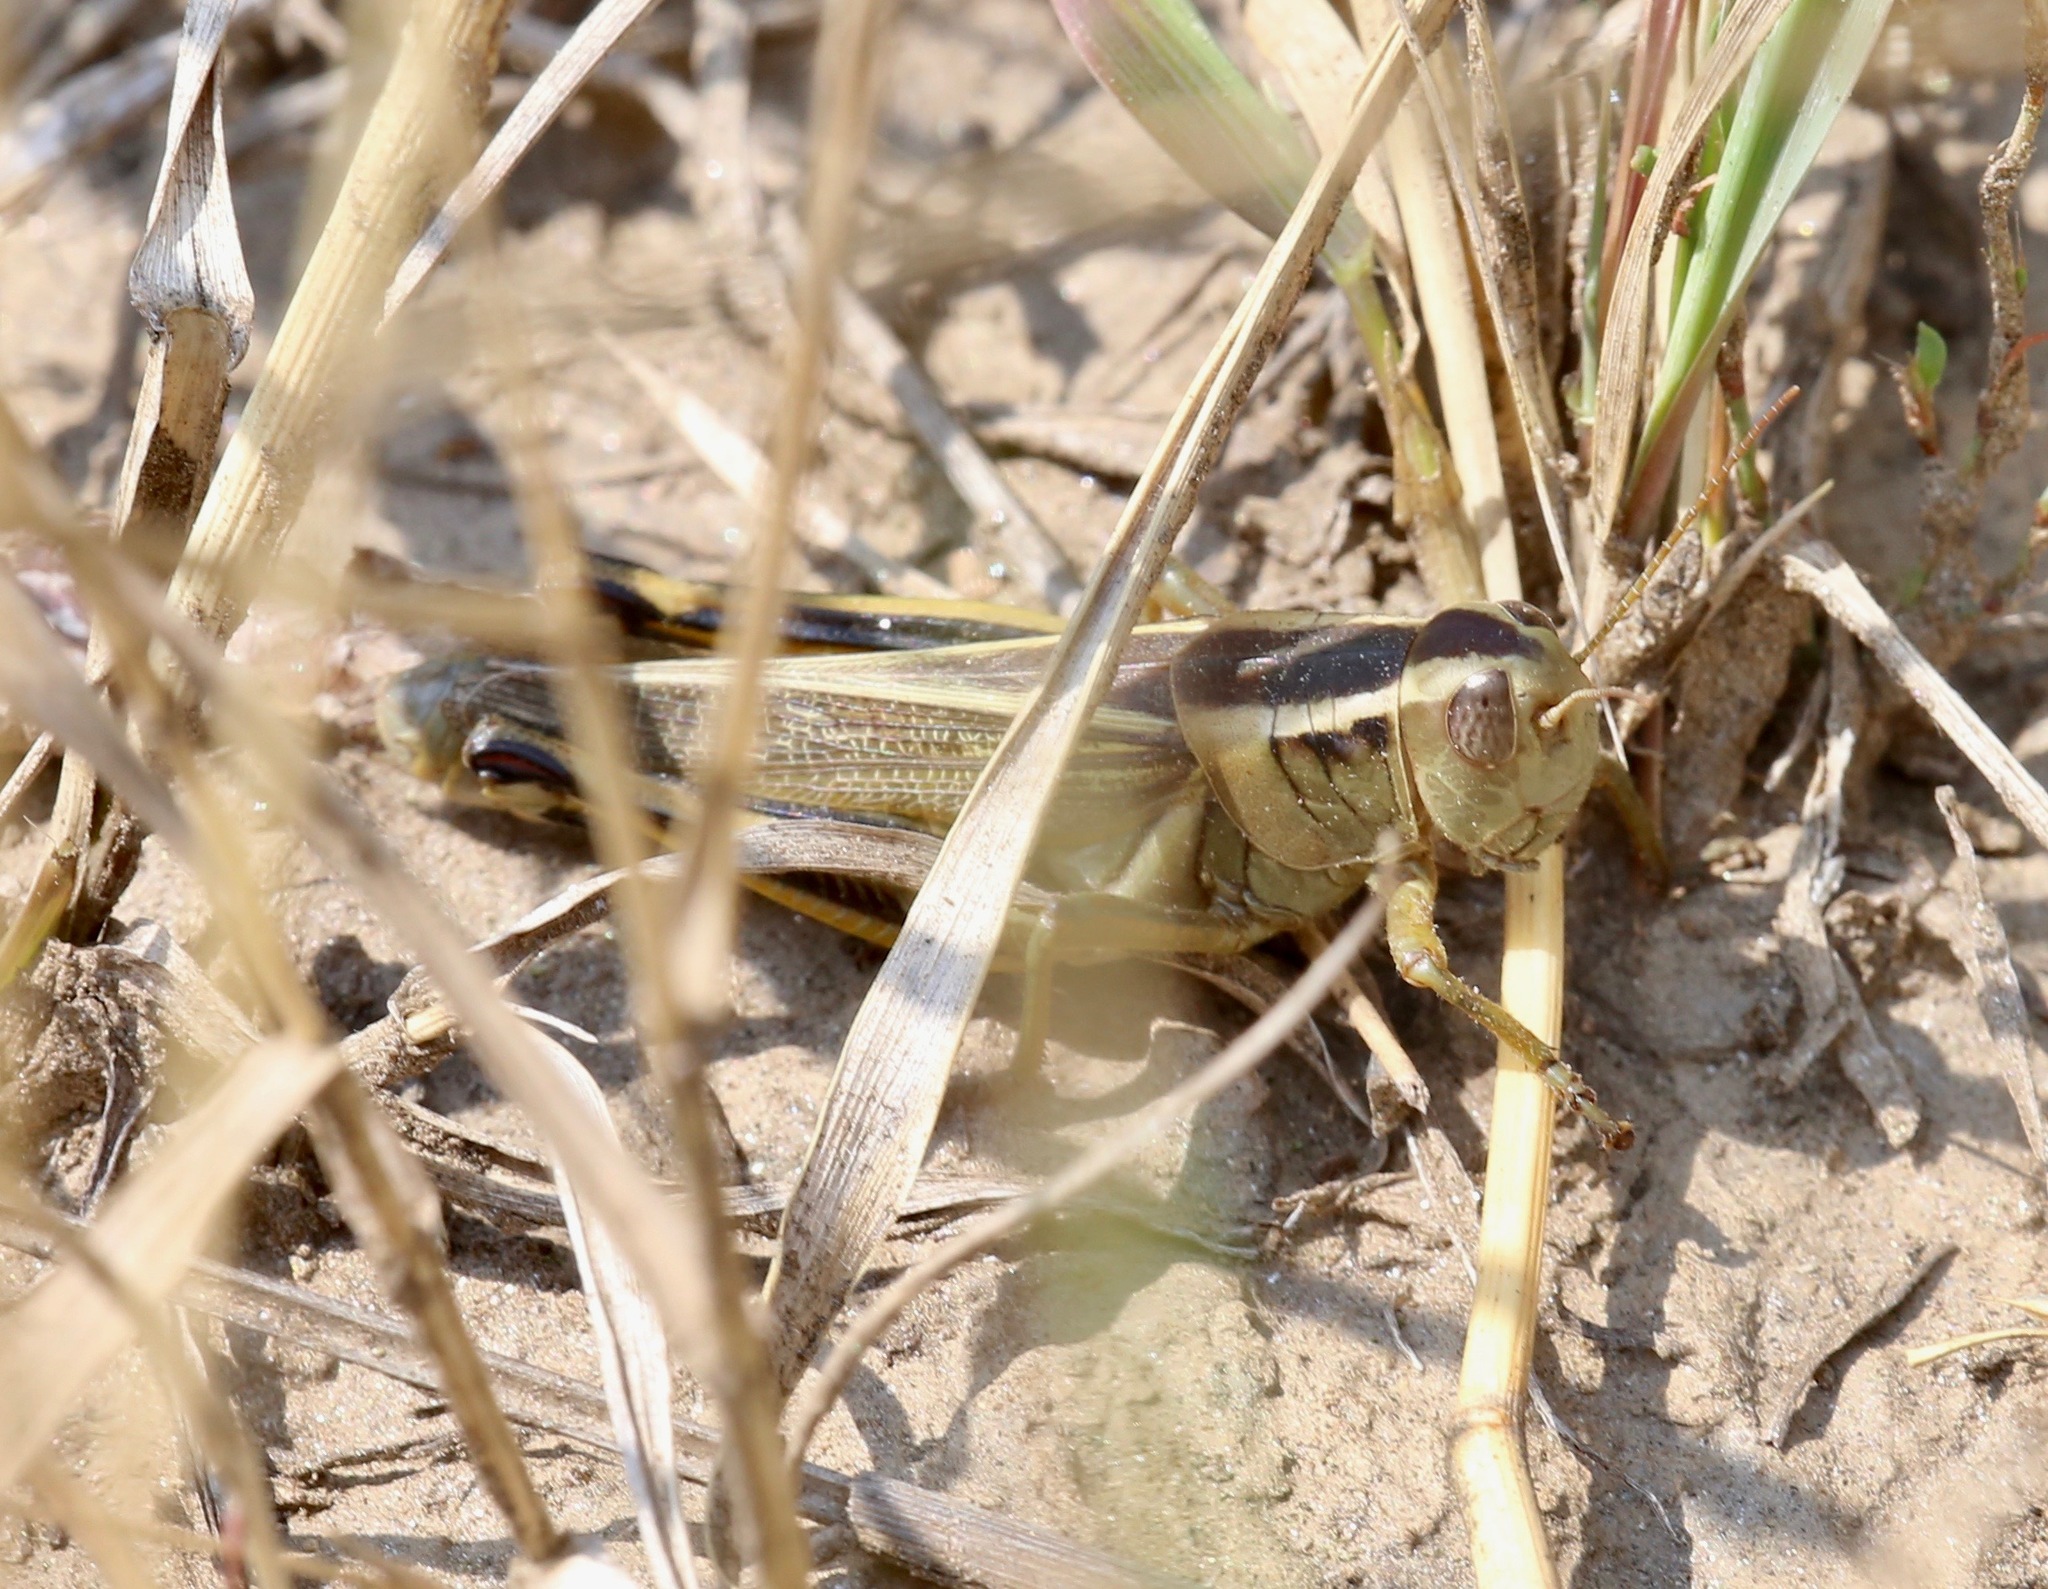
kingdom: Animalia
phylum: Arthropoda
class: Insecta
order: Orthoptera
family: Acrididae
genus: Melanoplus
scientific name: Melanoplus bivittatus
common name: Two-striped grasshopper
